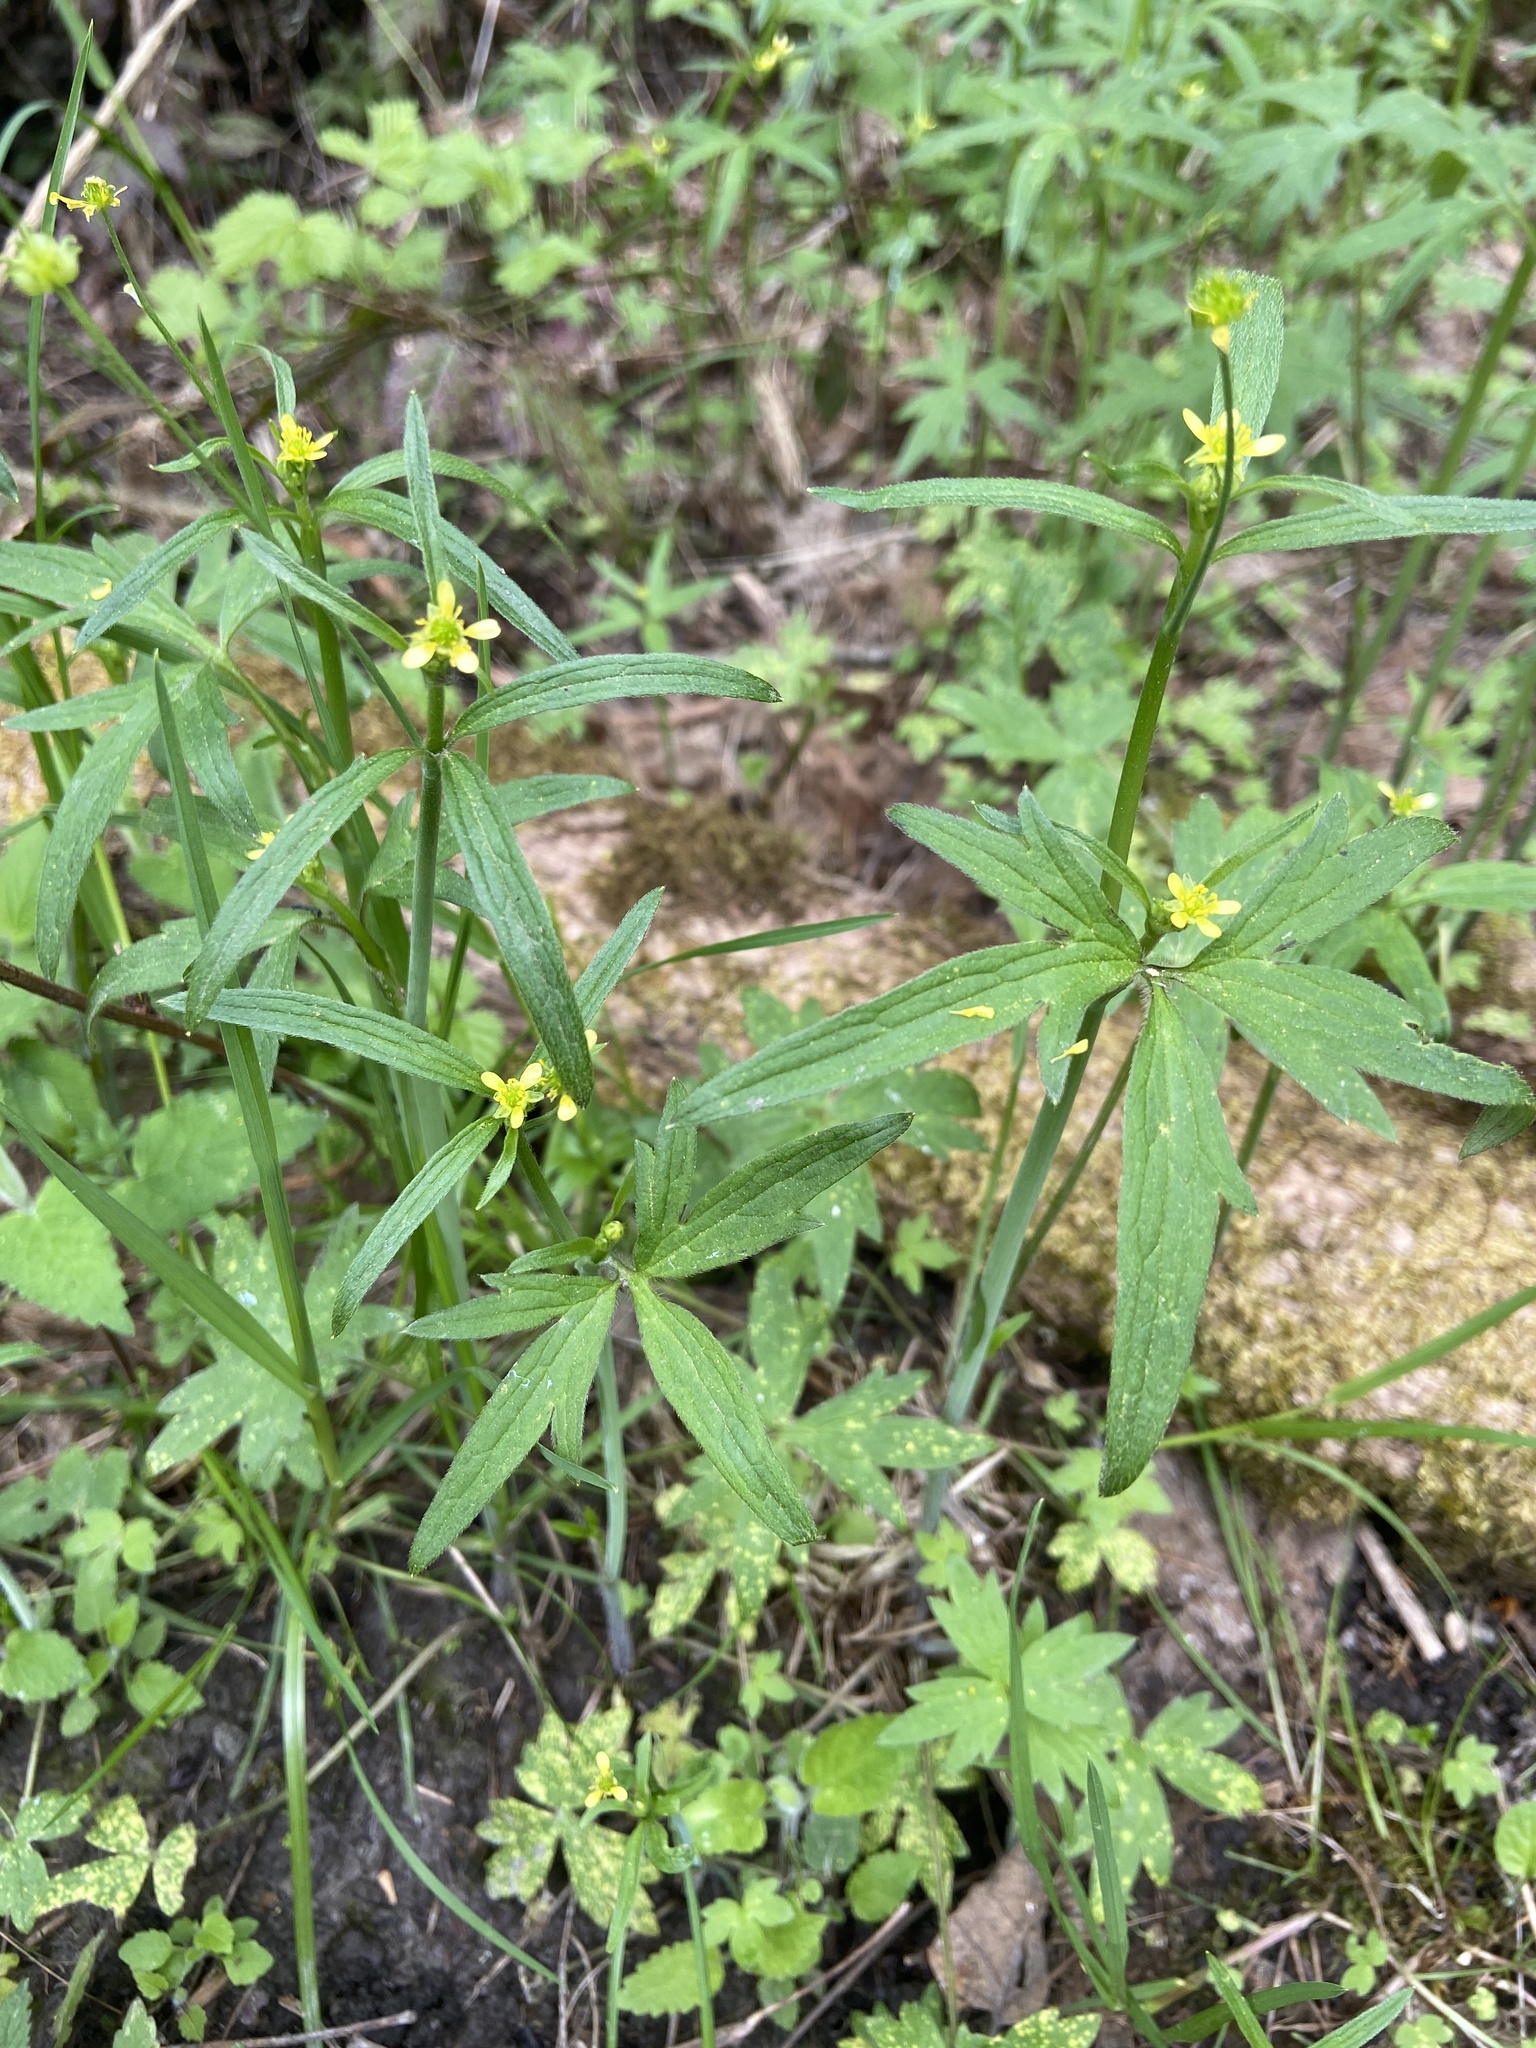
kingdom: Plantae
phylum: Tracheophyta
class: Magnoliopsida
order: Ranunculales
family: Ranunculaceae
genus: Ranunculus
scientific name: Ranunculus uncinatus
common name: Little buttercup
